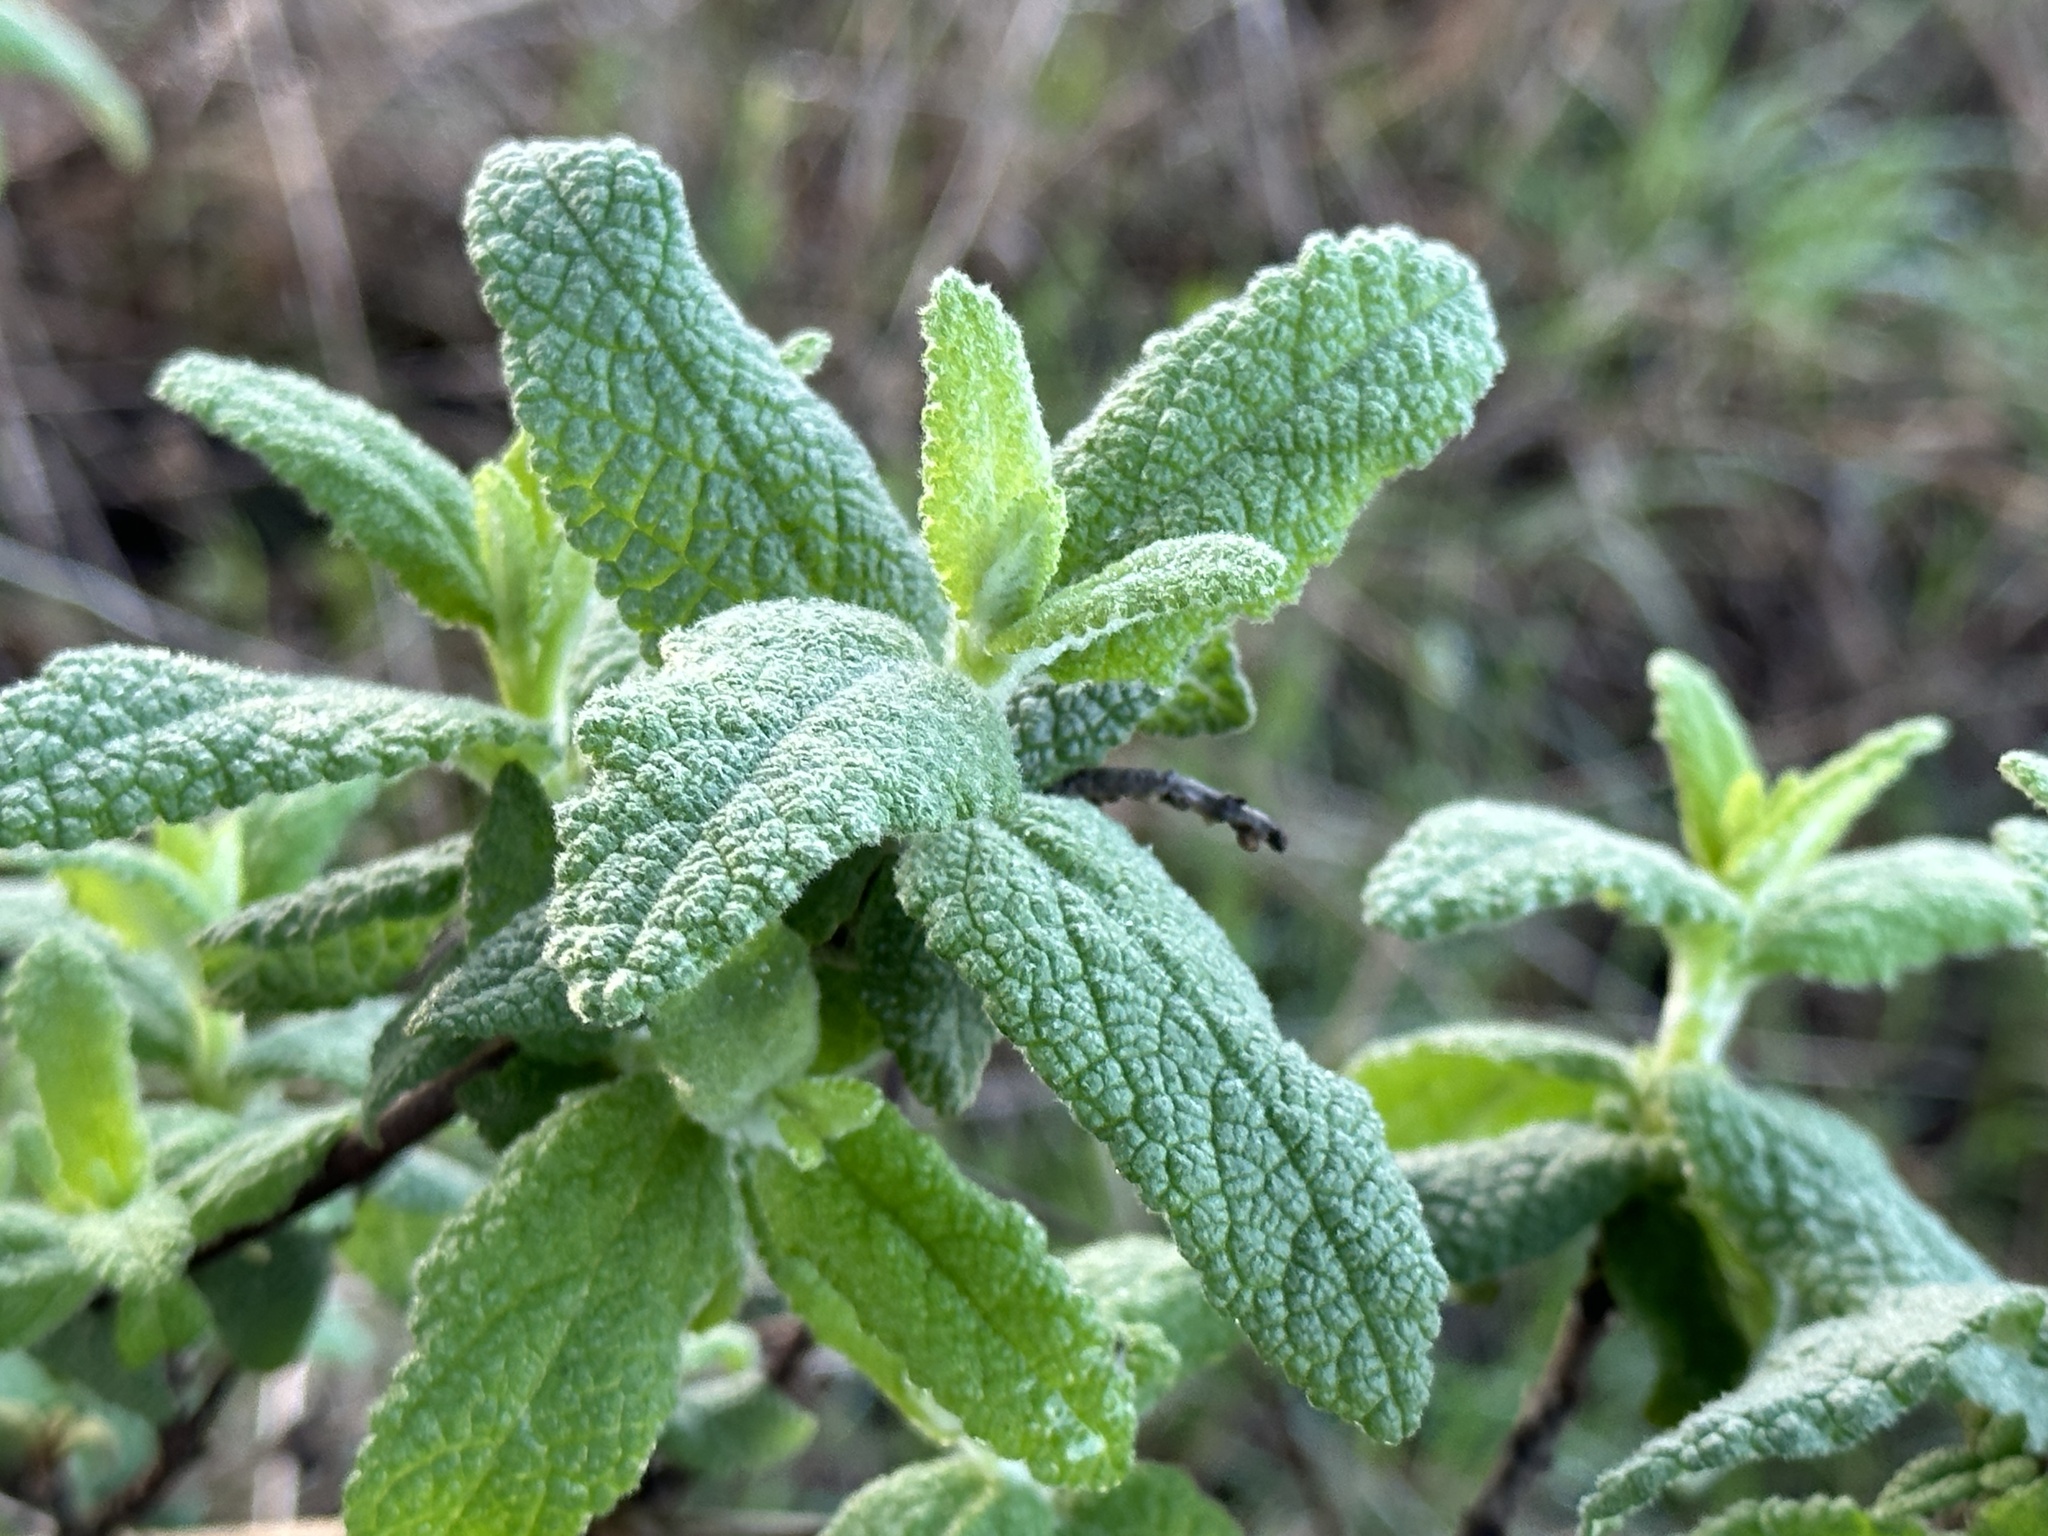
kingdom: Plantae
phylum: Tracheophyta
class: Magnoliopsida
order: Lamiales
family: Lamiaceae
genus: Lepechinia
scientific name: Lepechinia calycina
